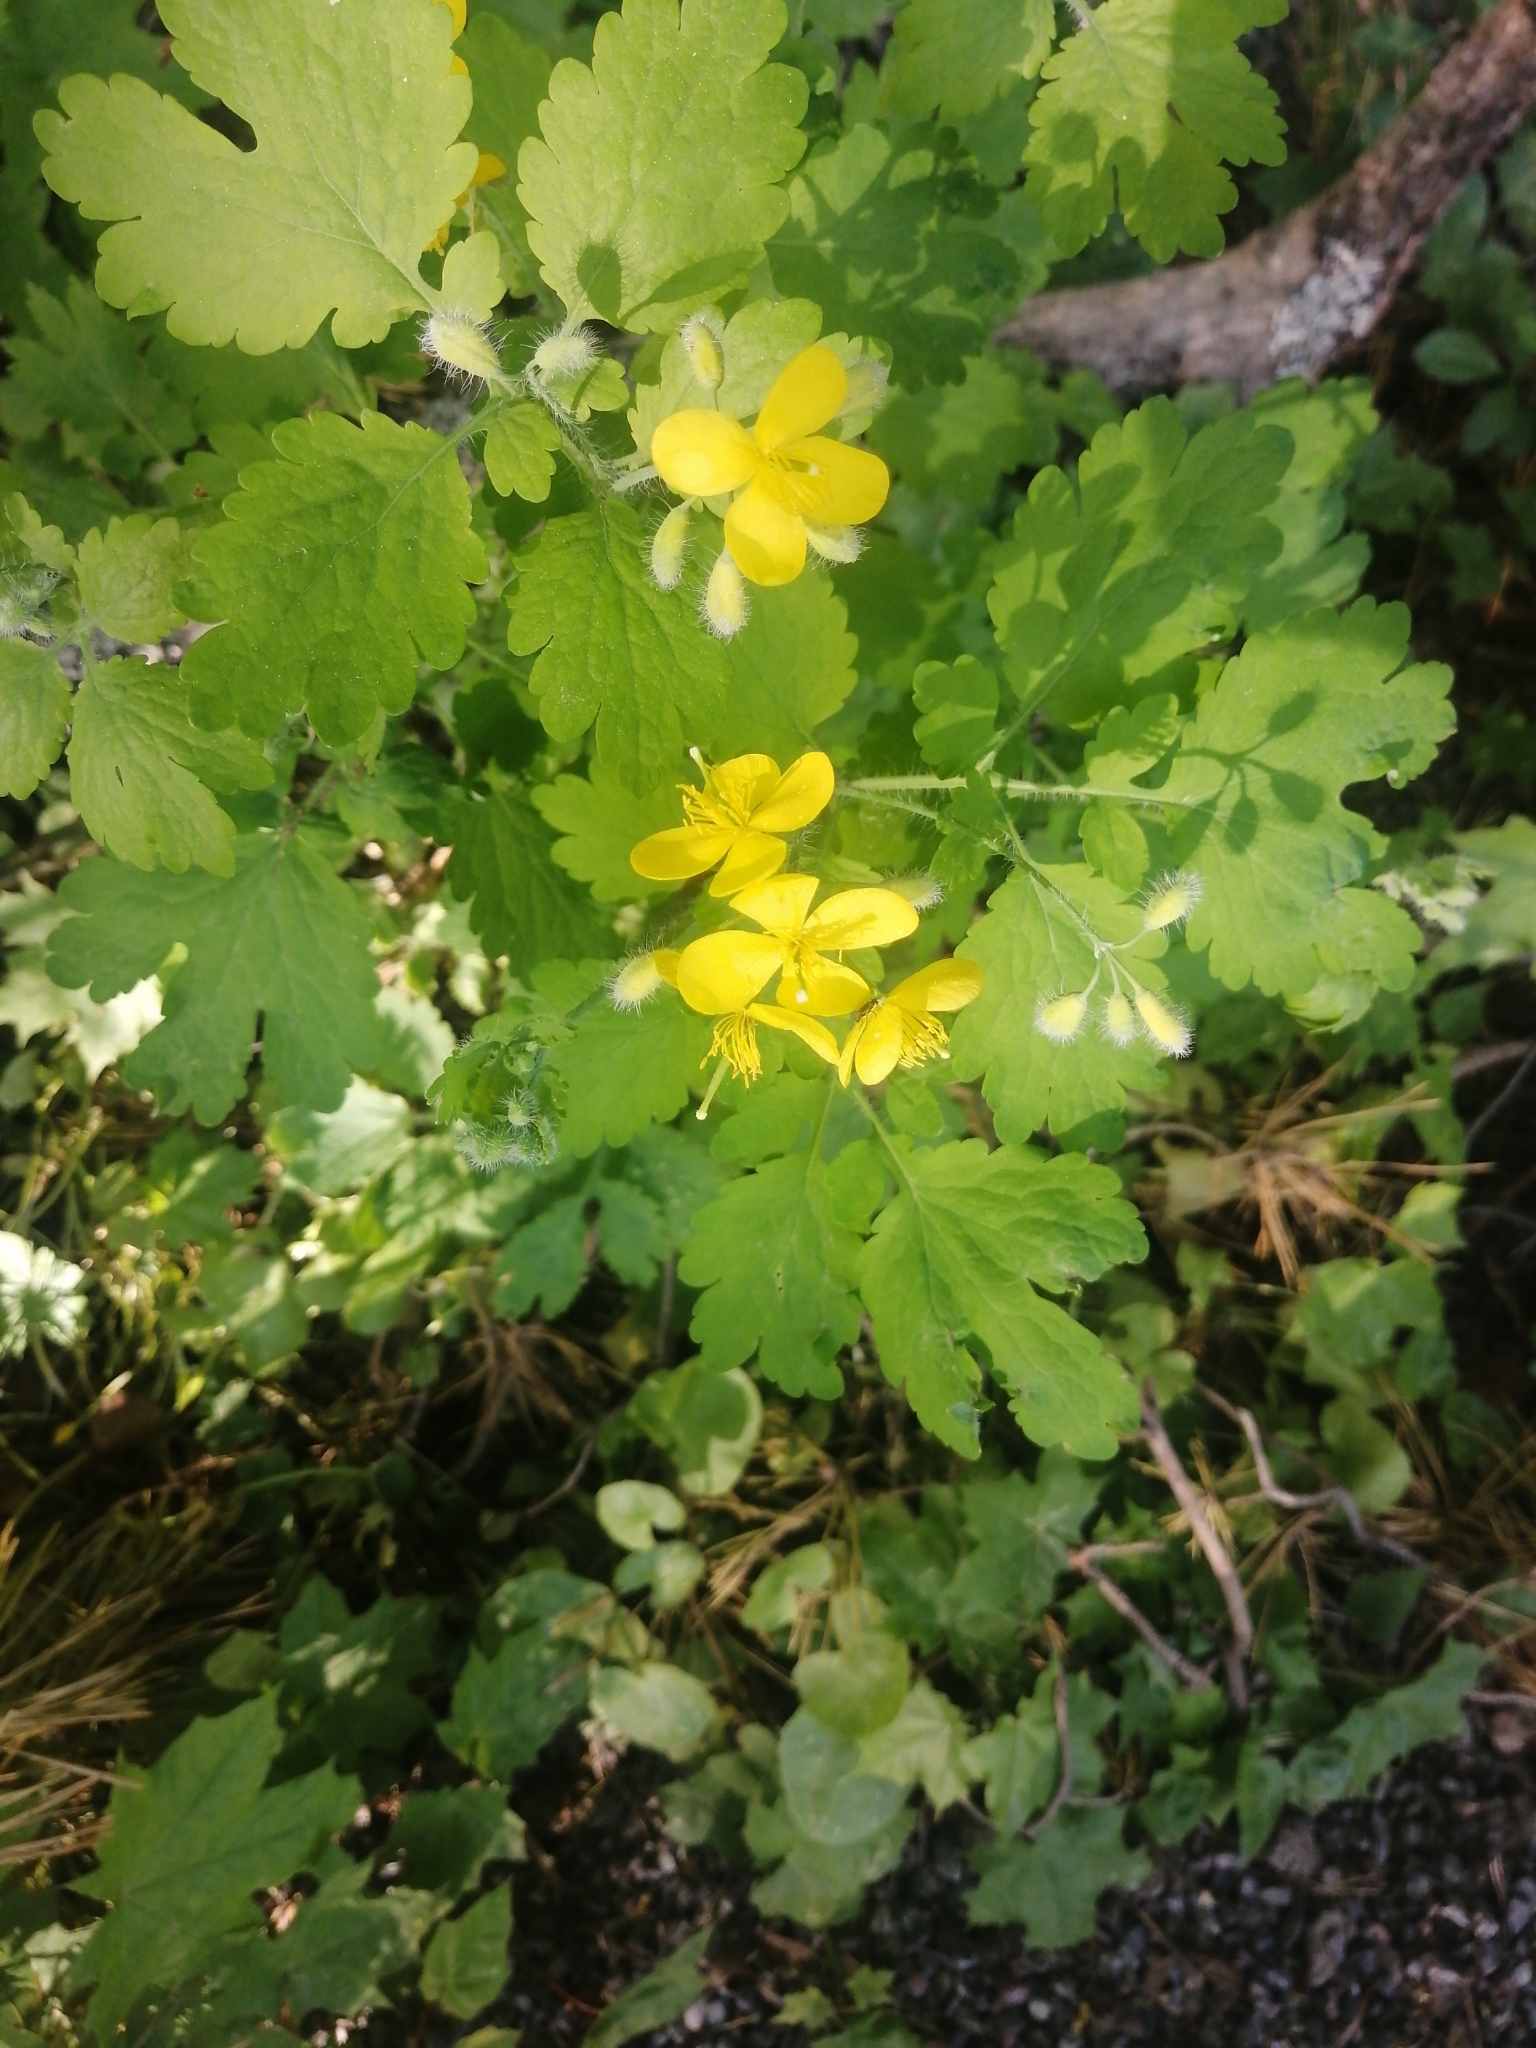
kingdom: Plantae
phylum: Tracheophyta
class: Magnoliopsida
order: Ranunculales
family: Papaveraceae
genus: Chelidonium
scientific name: Chelidonium majus
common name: Greater celandine
